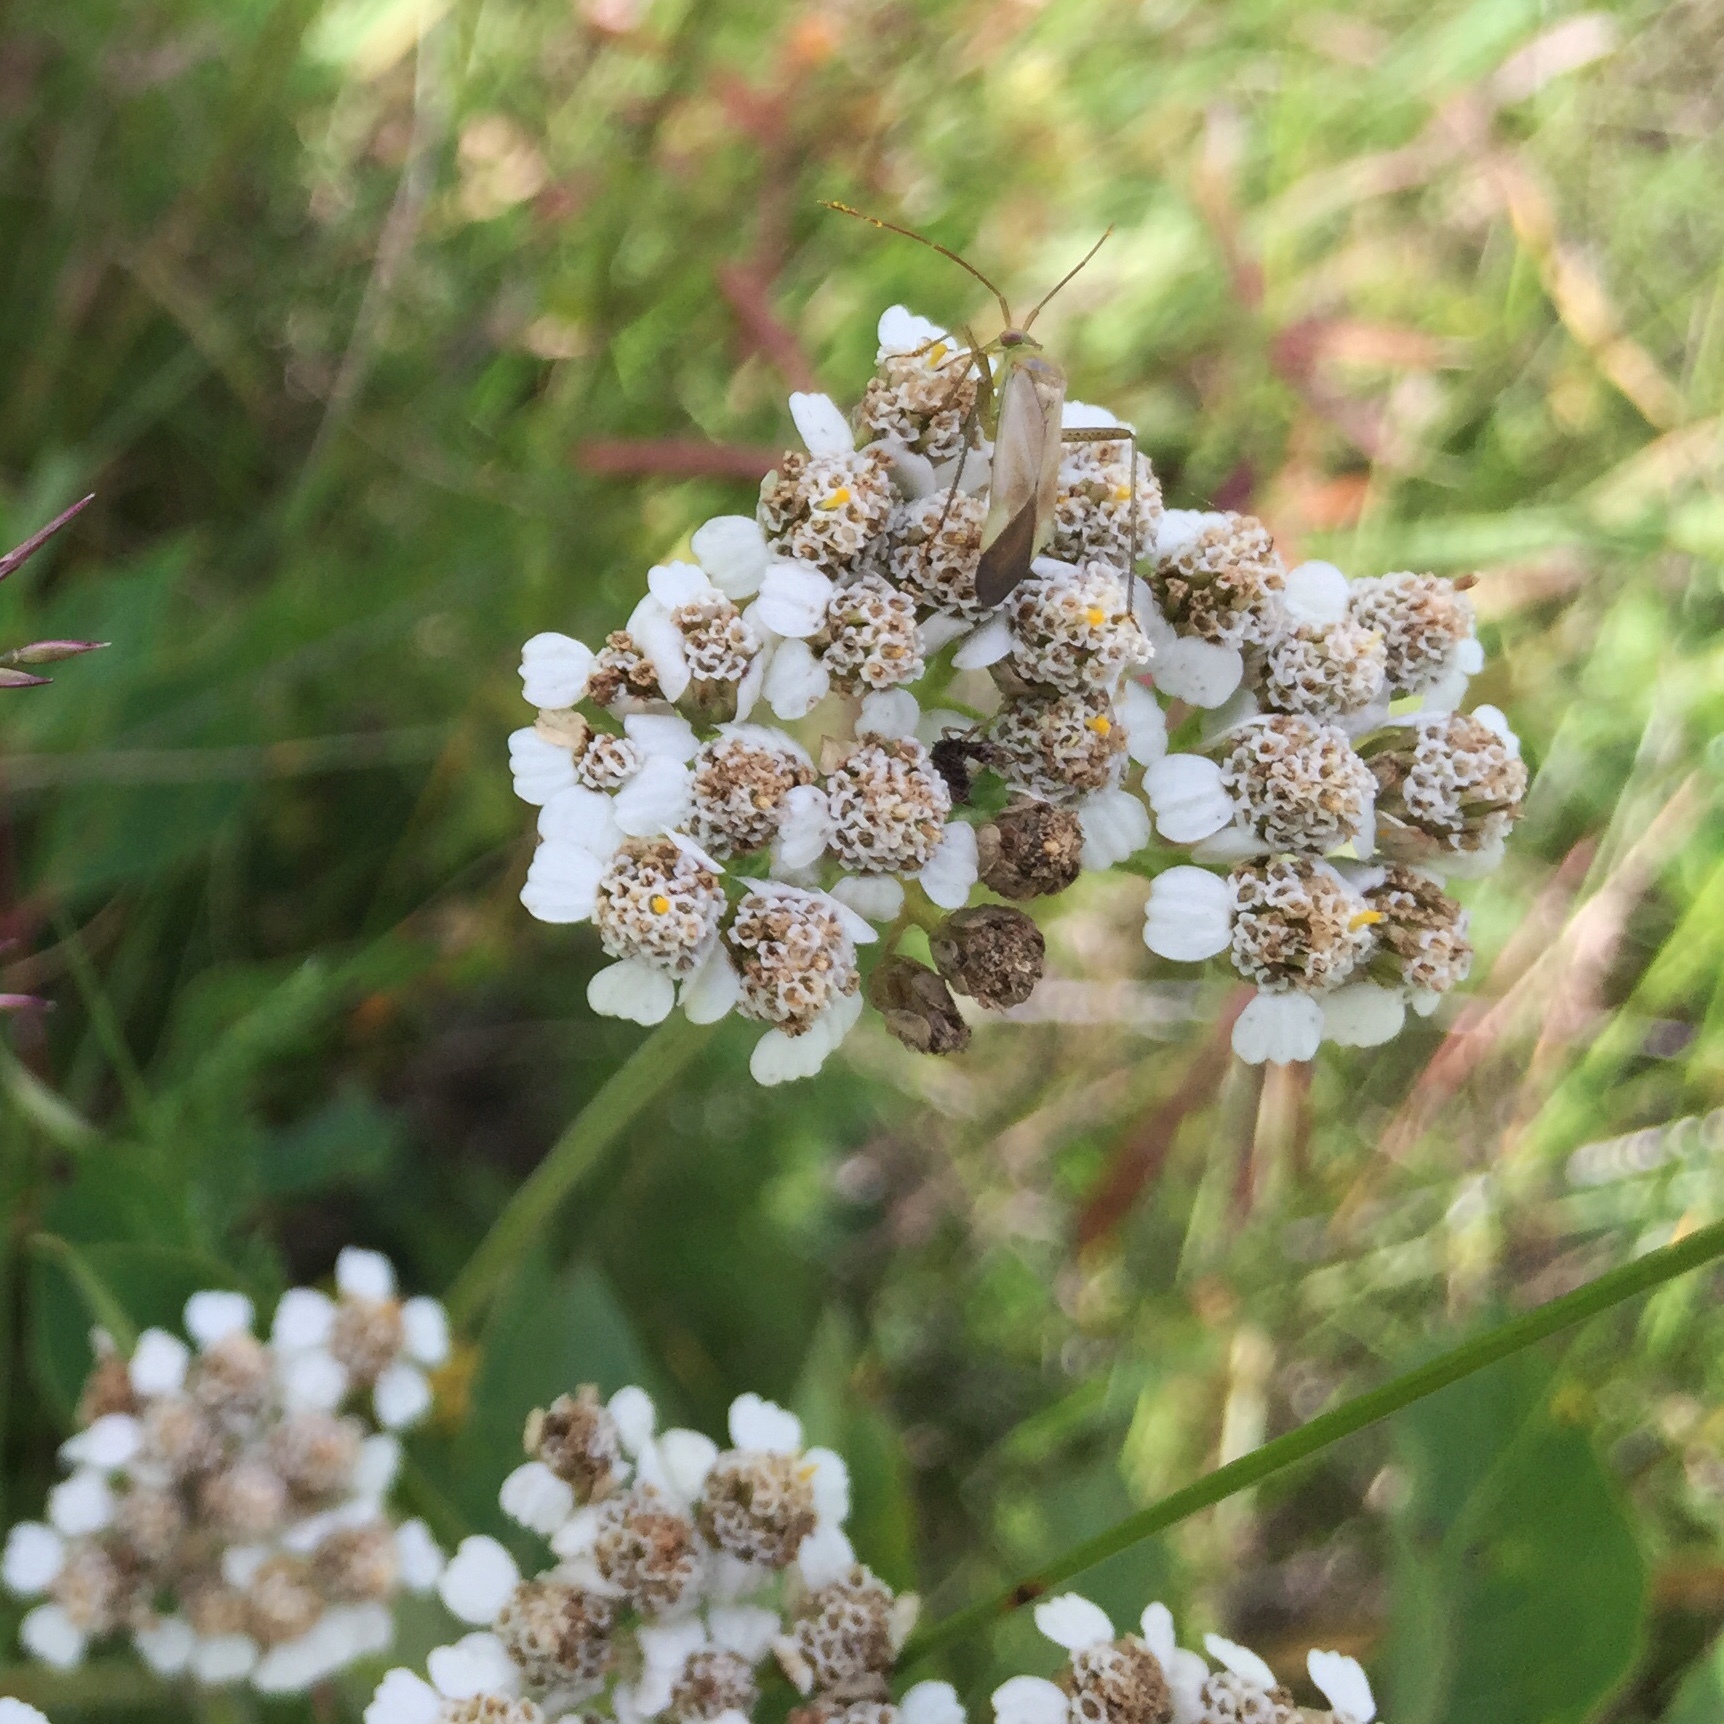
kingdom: Animalia
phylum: Arthropoda
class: Insecta
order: Hemiptera
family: Miridae
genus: Adelphocoris
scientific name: Adelphocoris lineolatus
